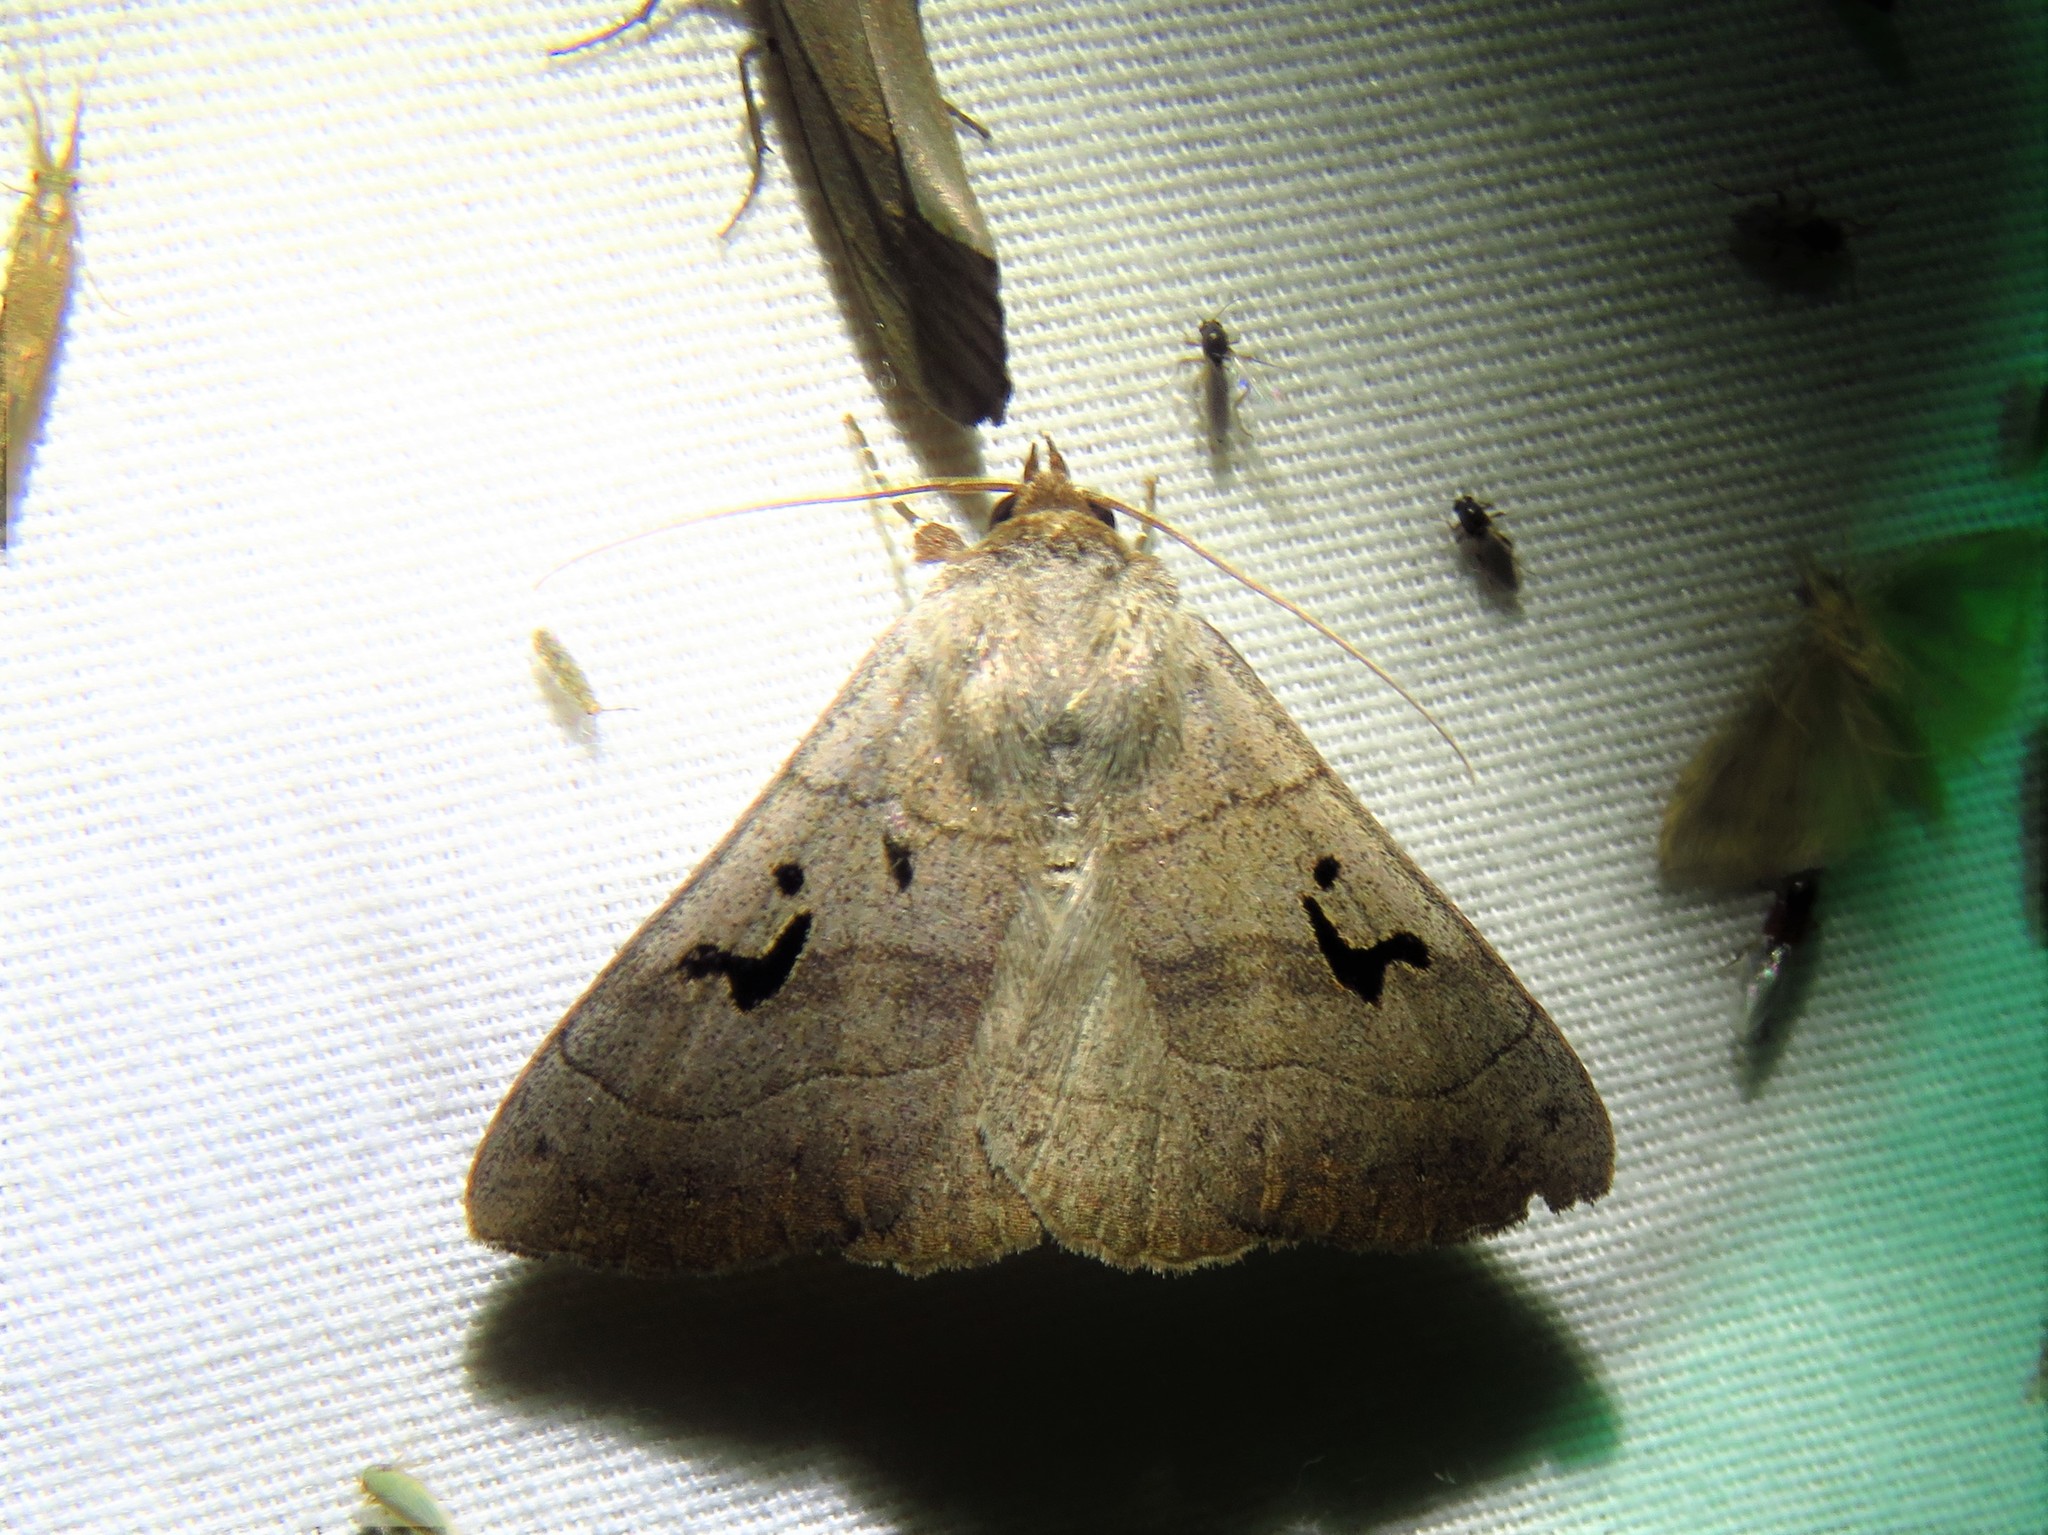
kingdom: Animalia
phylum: Arthropoda
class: Insecta
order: Lepidoptera
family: Erebidae
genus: Panopoda
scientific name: Panopoda carneicosta
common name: Brown panopoda moth
